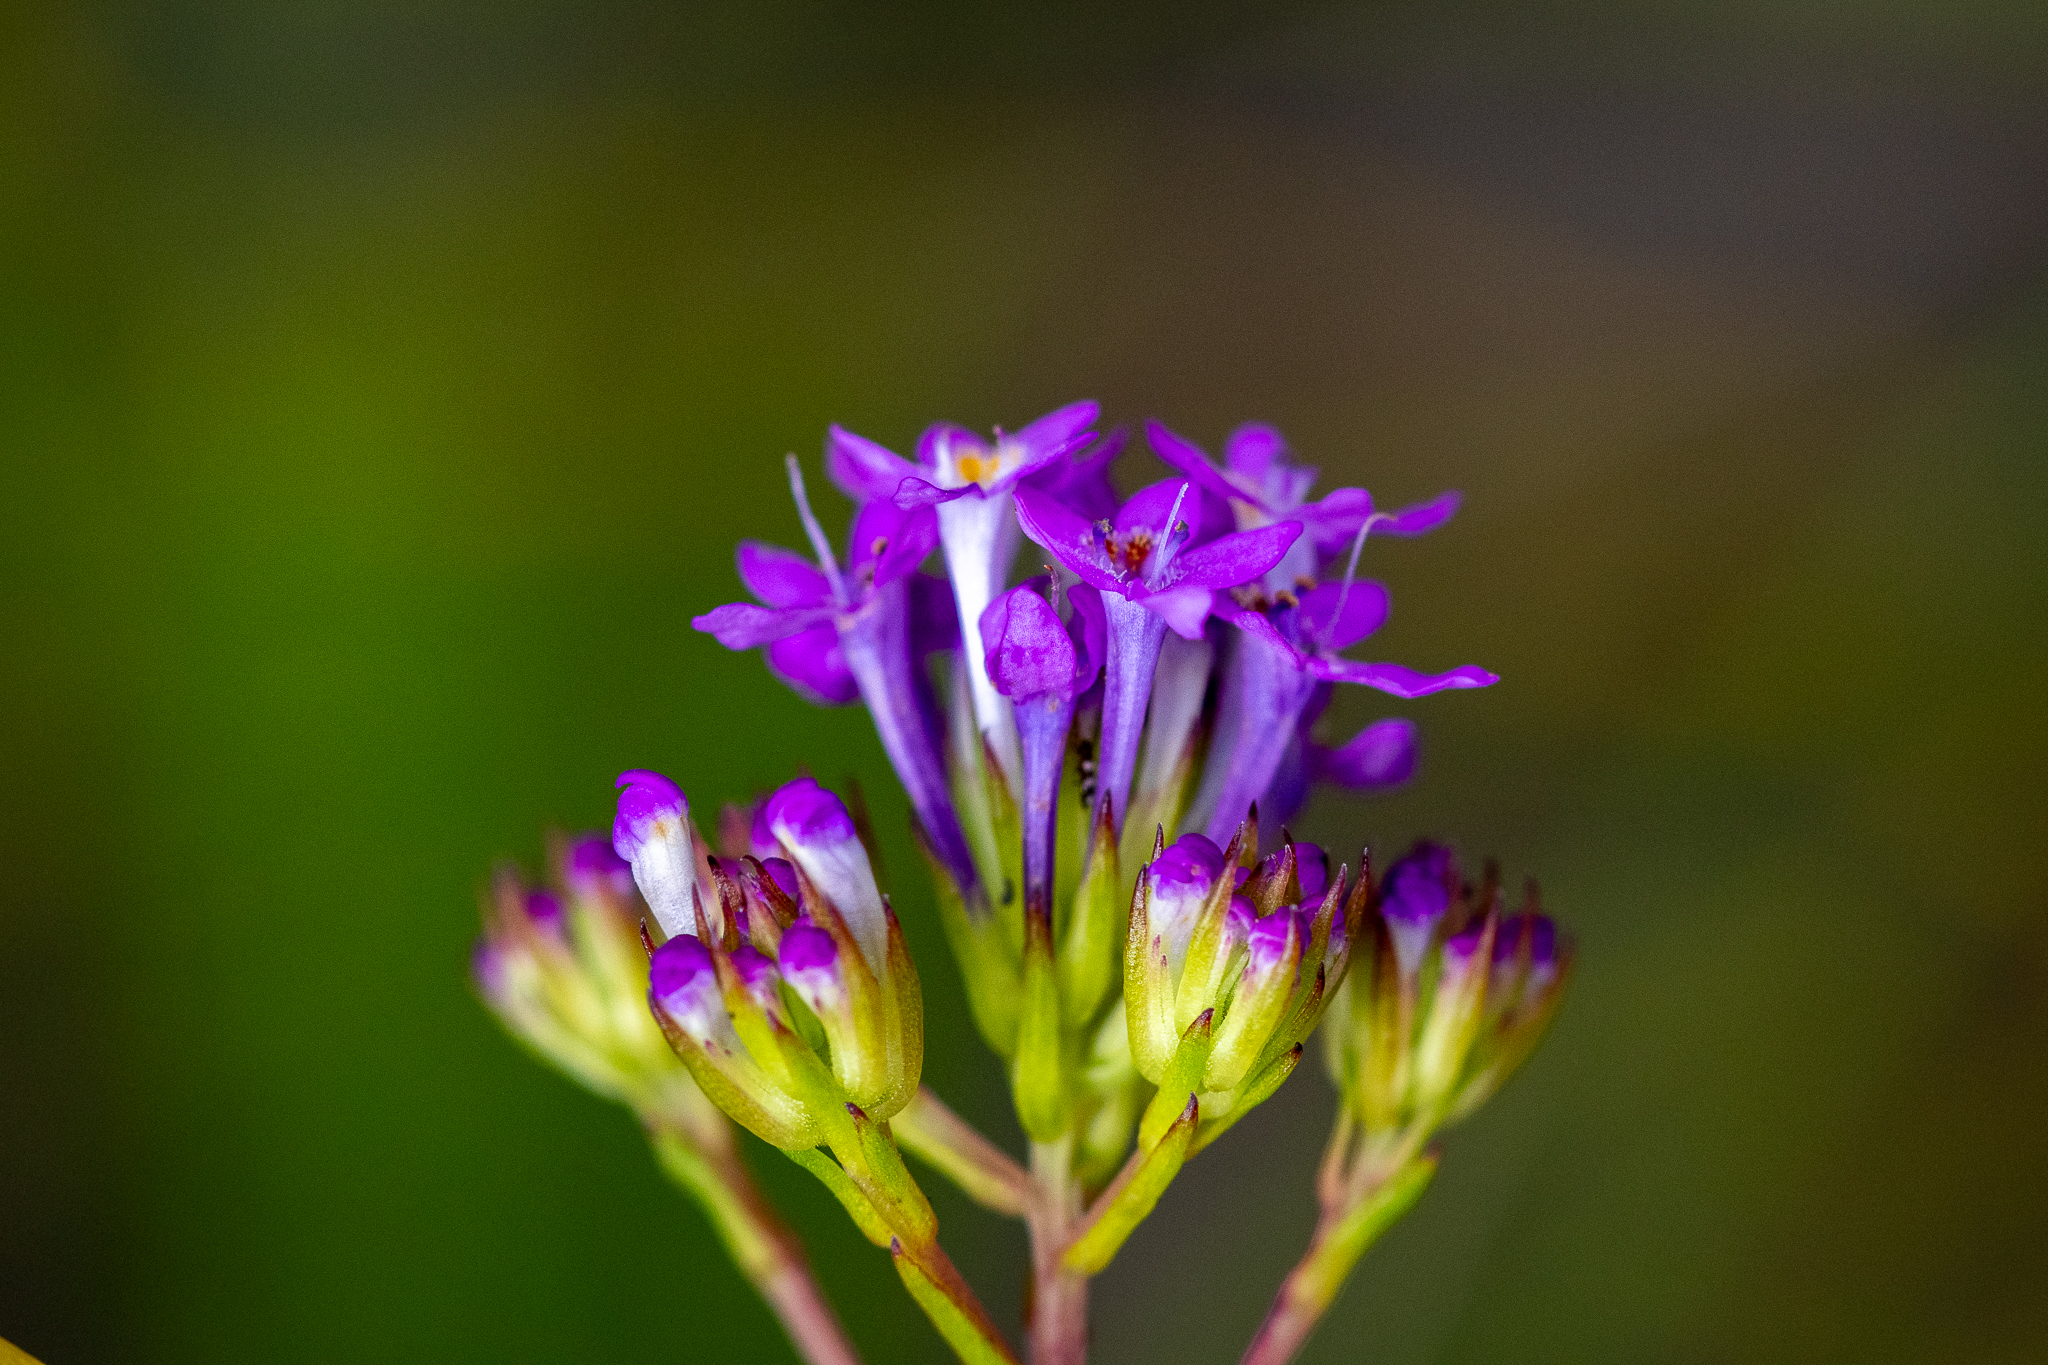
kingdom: Plantae
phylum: Tracheophyta
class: Magnoliopsida
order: Lamiales
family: Scrophulariaceae
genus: Pseudoselago
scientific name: Pseudoselago verbenacea
